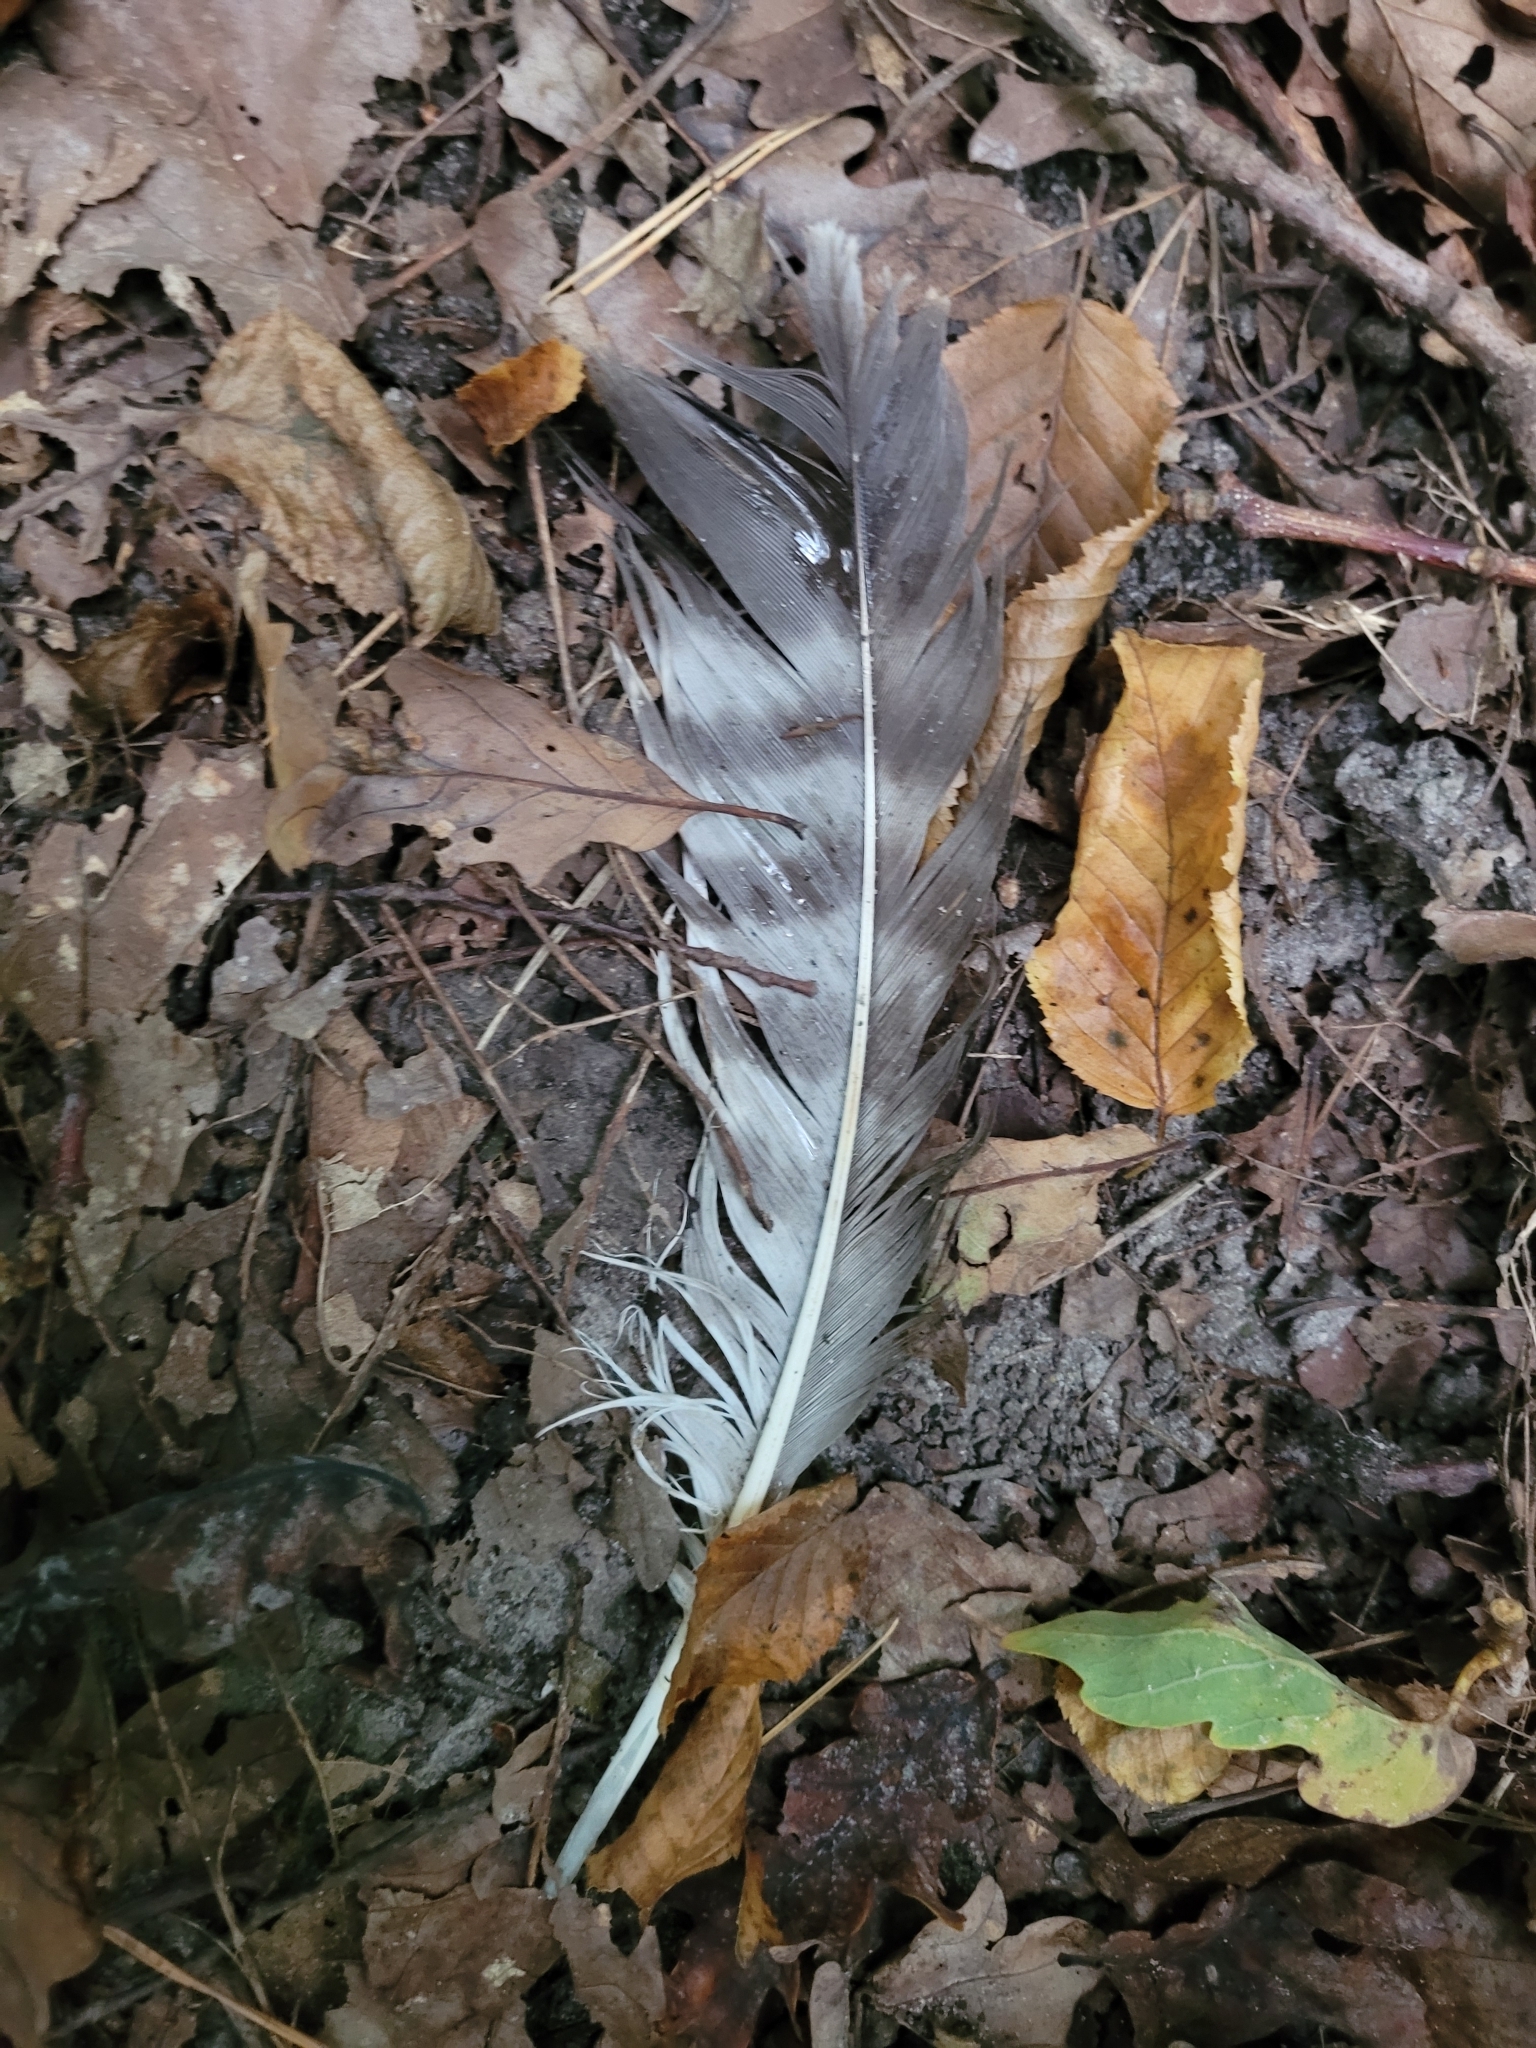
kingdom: Animalia
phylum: Chordata
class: Aves
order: Accipitriformes
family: Accipitridae
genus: Buteo
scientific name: Buteo buteo
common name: Common buzzard
